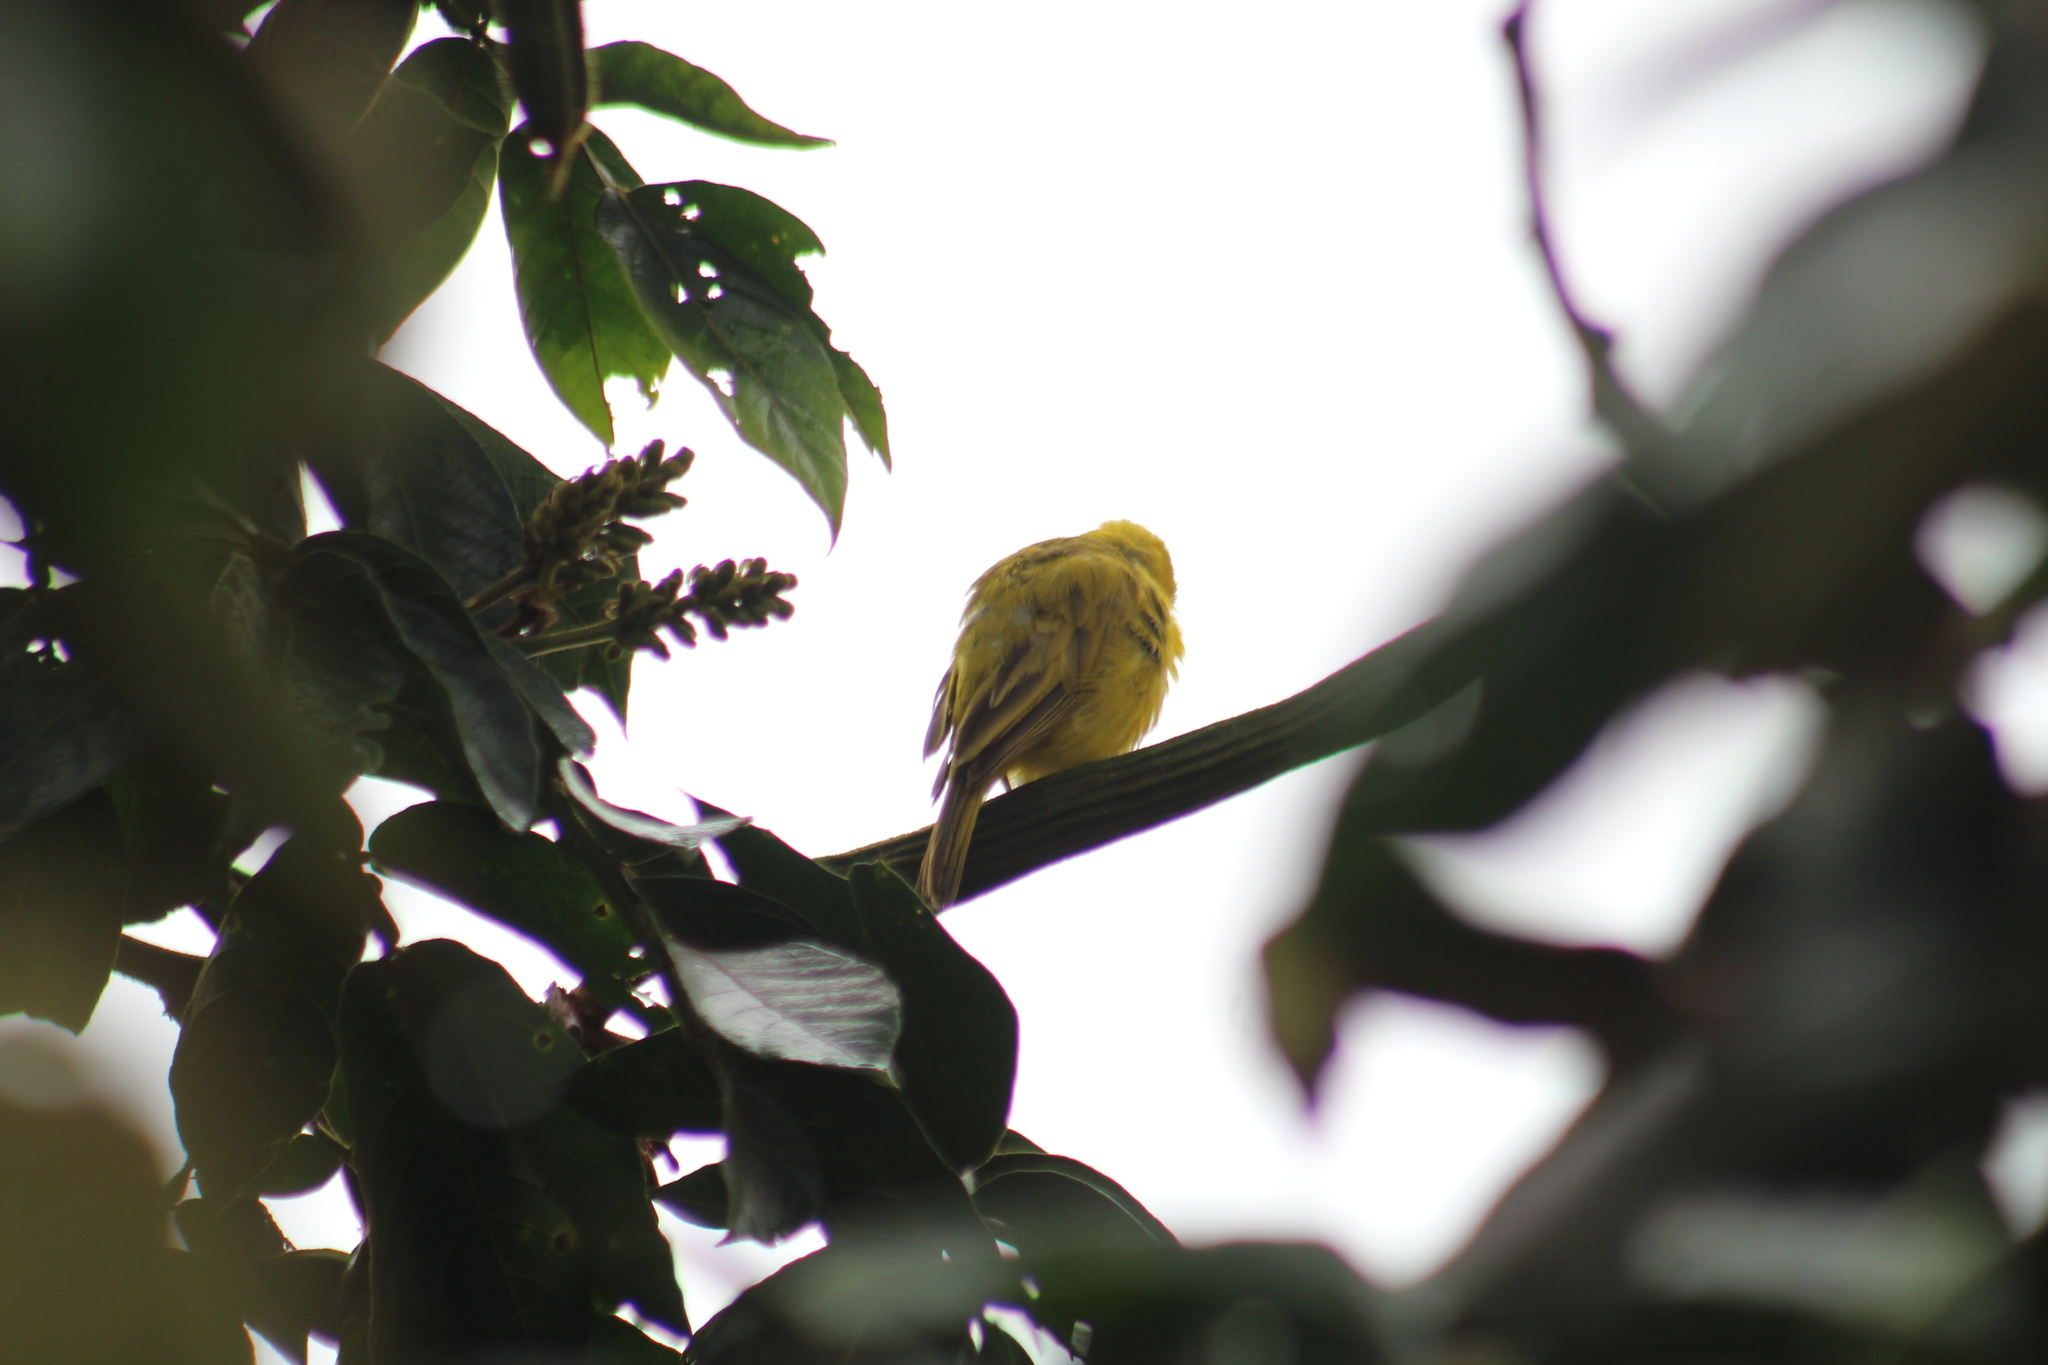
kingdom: Animalia
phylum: Chordata
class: Aves
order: Passeriformes
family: Thraupidae
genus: Sicalis
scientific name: Sicalis flaveola
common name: Saffron finch
